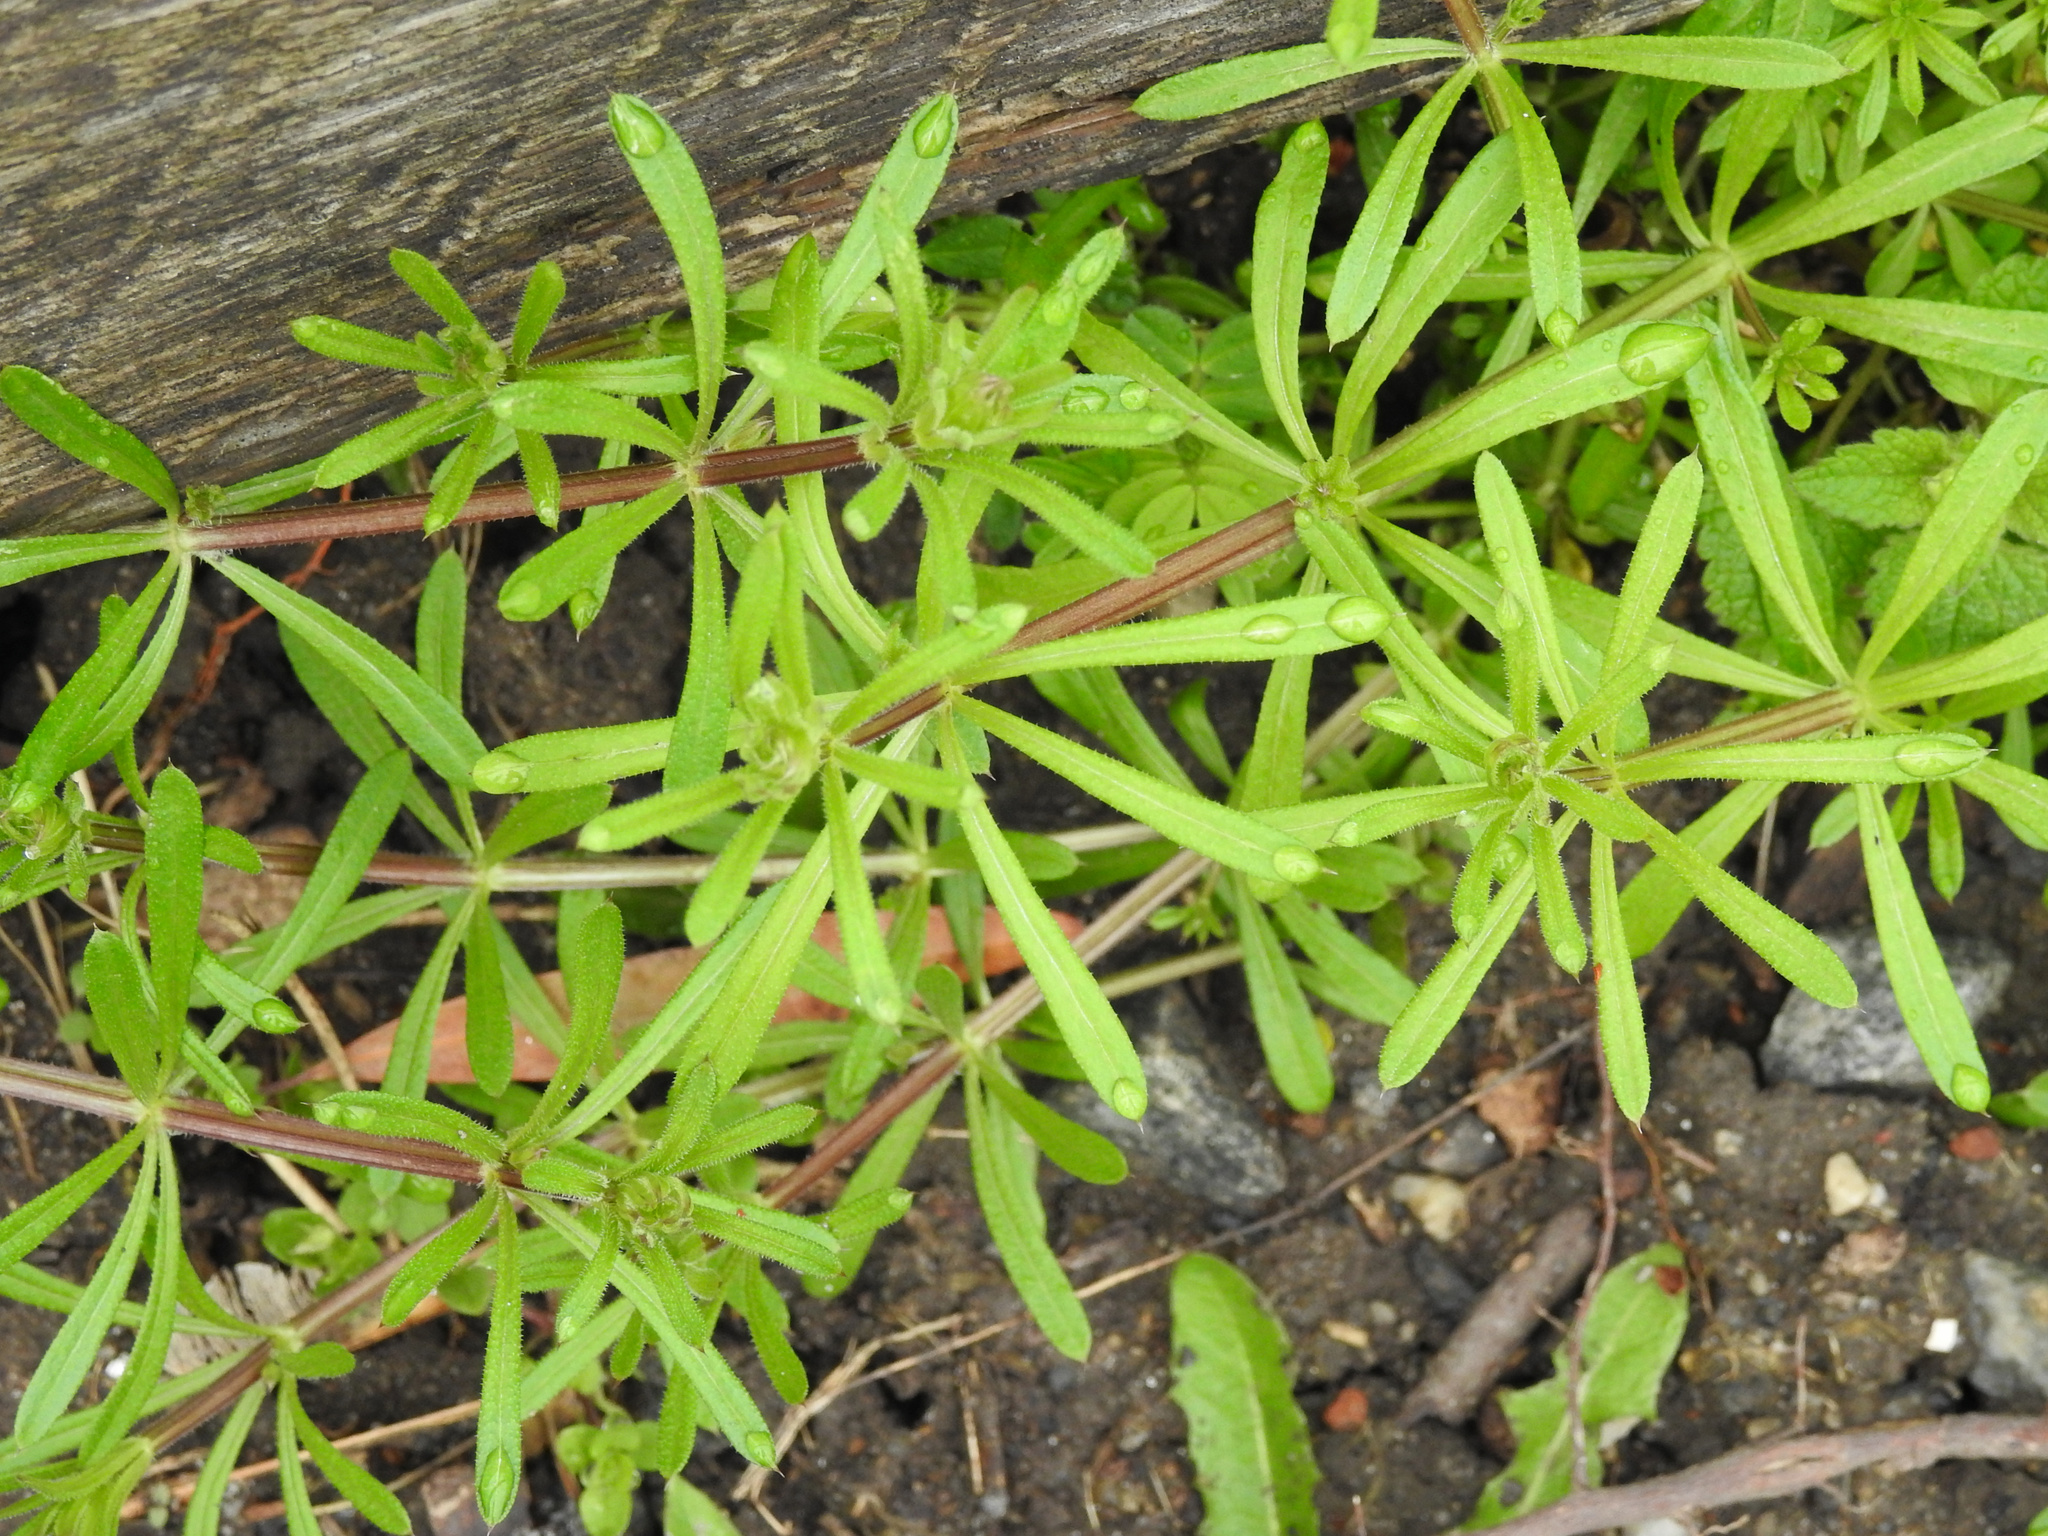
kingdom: Plantae
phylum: Tracheophyta
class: Magnoliopsida
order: Gentianales
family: Rubiaceae
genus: Galium
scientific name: Galium aparine
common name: Cleavers
